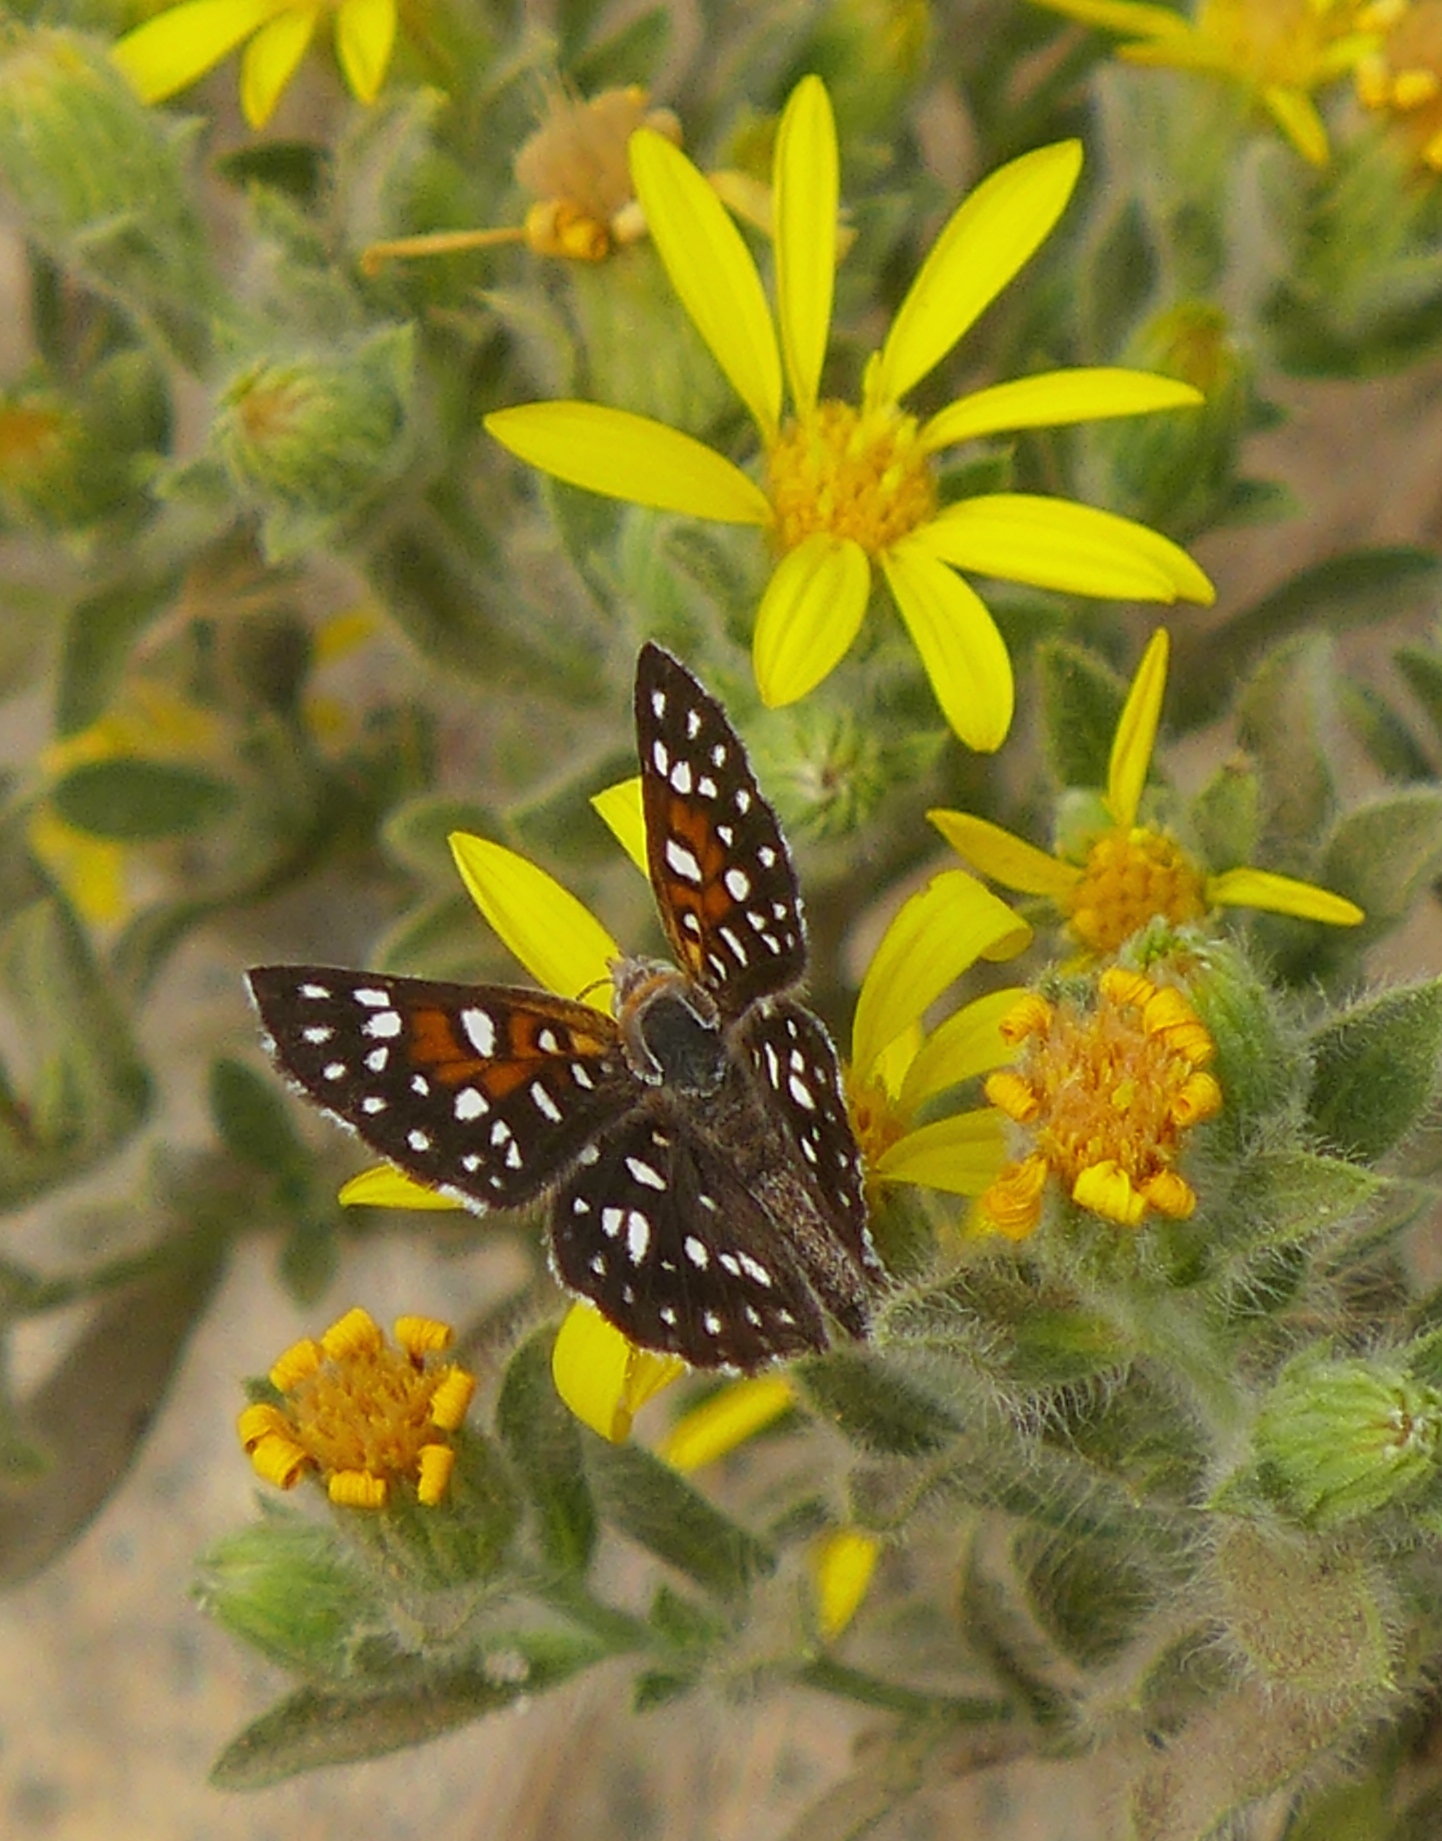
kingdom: Animalia
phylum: Arthropoda
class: Insecta
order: Lepidoptera
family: Riodinidae
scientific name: Riodinidae
